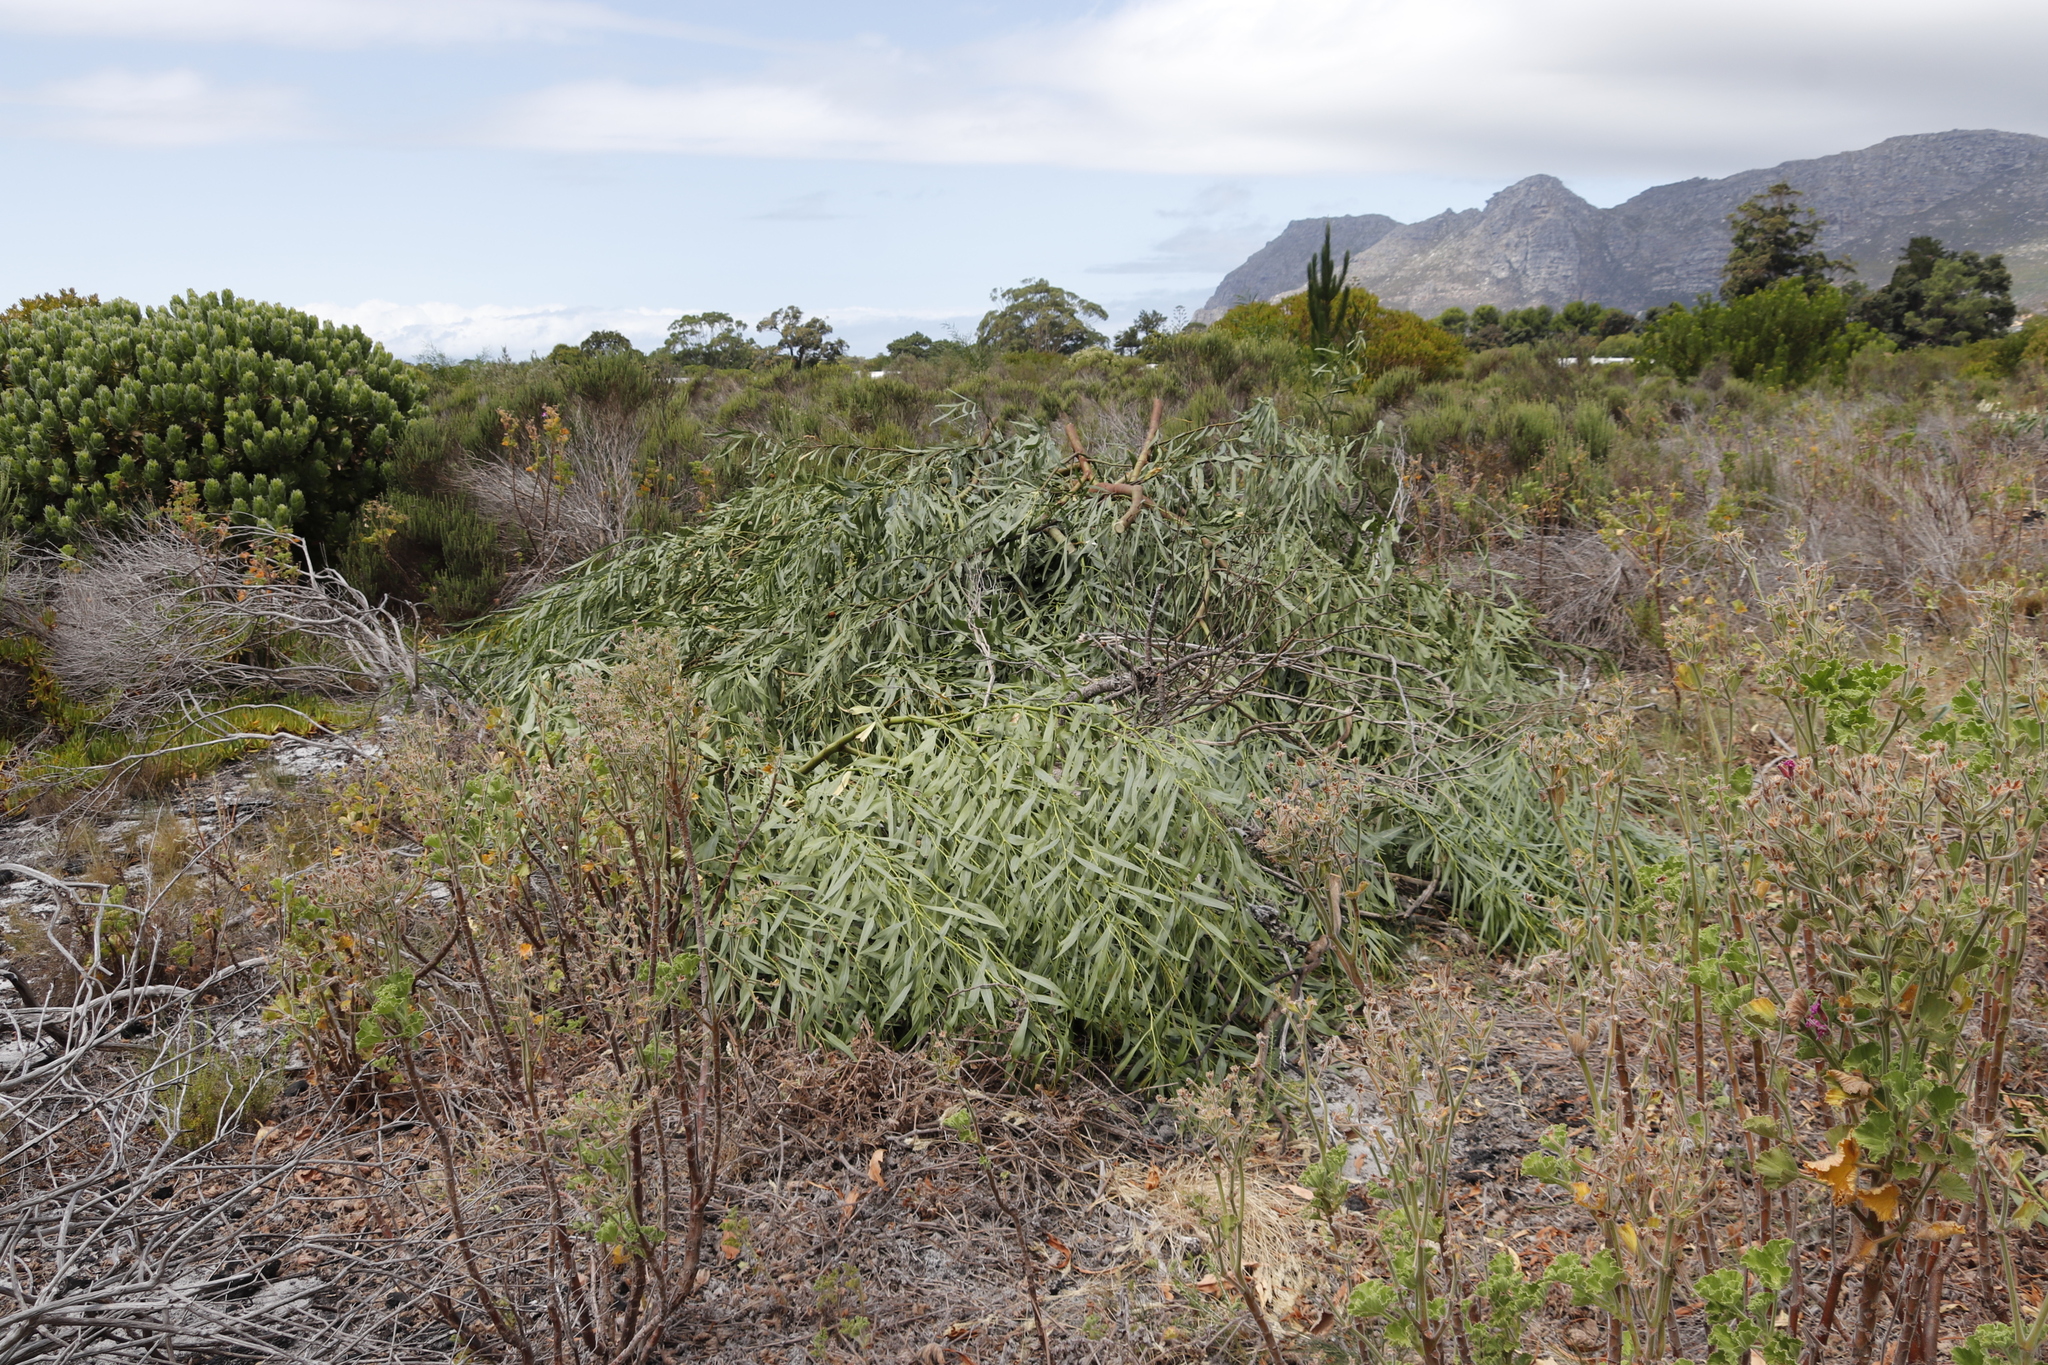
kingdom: Plantae
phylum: Tracheophyta
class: Magnoliopsida
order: Fabales
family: Fabaceae
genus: Acacia
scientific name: Acacia saligna
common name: Orange wattle
